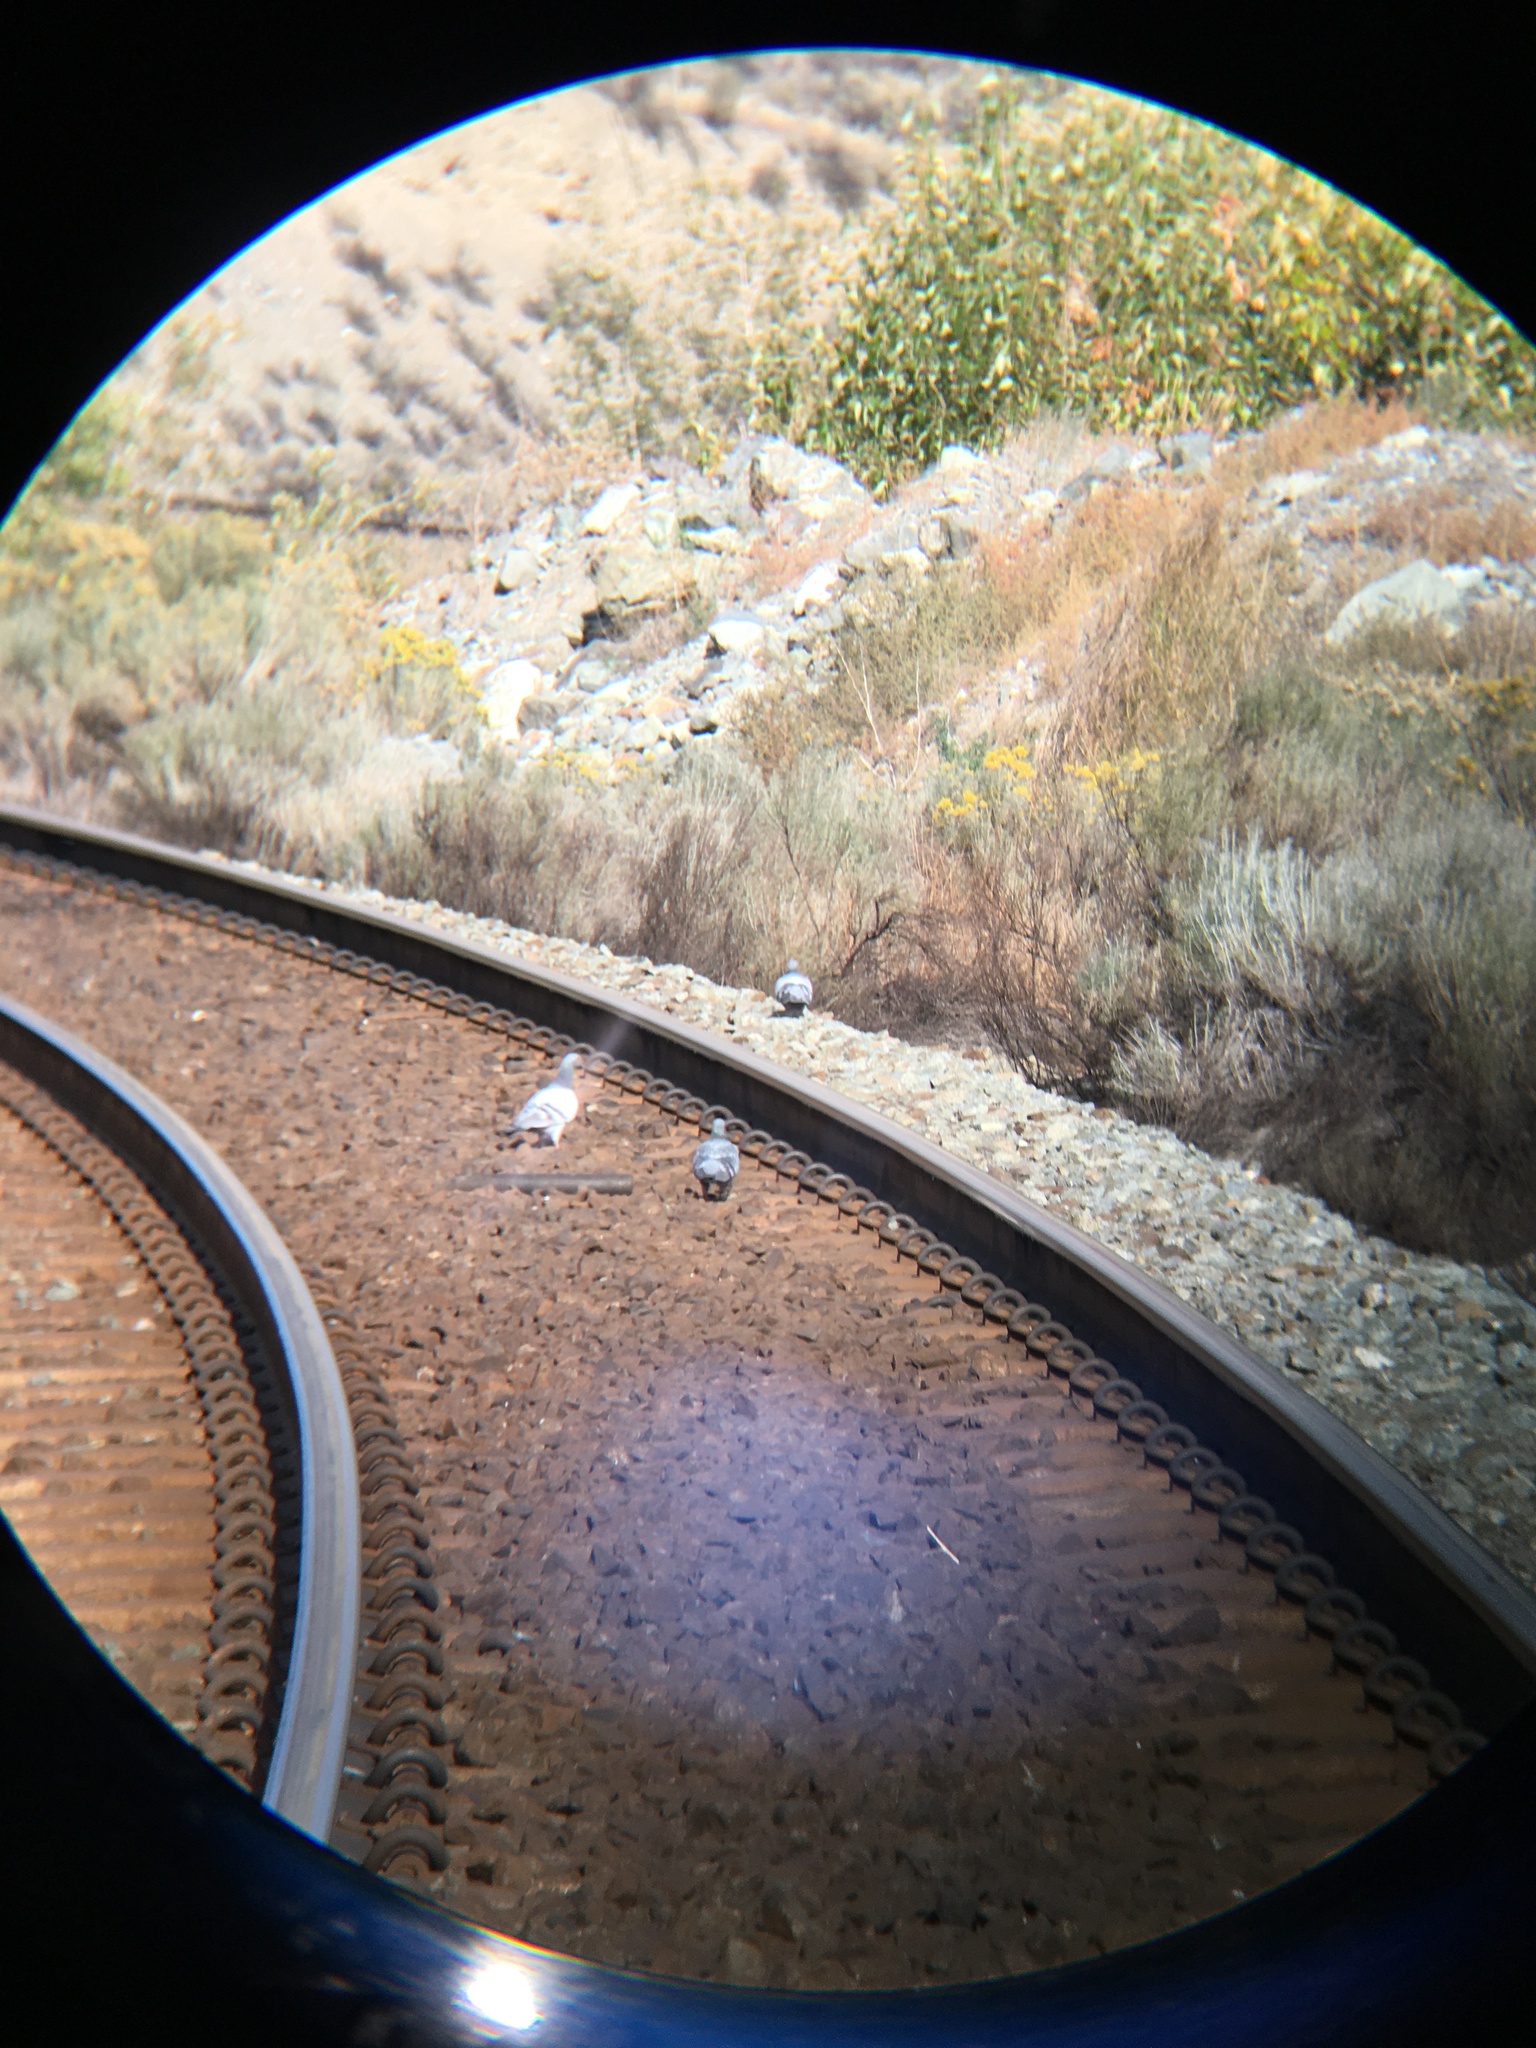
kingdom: Animalia
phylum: Chordata
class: Aves
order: Columbiformes
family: Columbidae
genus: Columba
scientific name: Columba livia
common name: Rock pigeon
